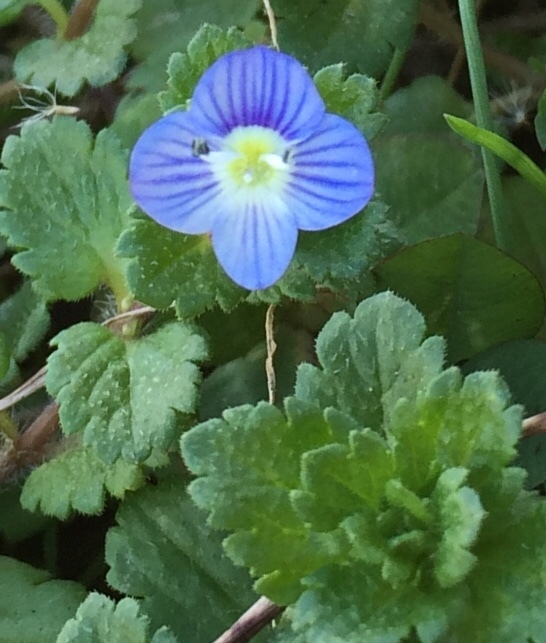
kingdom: Plantae
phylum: Tracheophyta
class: Magnoliopsida
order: Lamiales
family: Plantaginaceae
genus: Veronica
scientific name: Veronica persica
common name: Common field-speedwell
